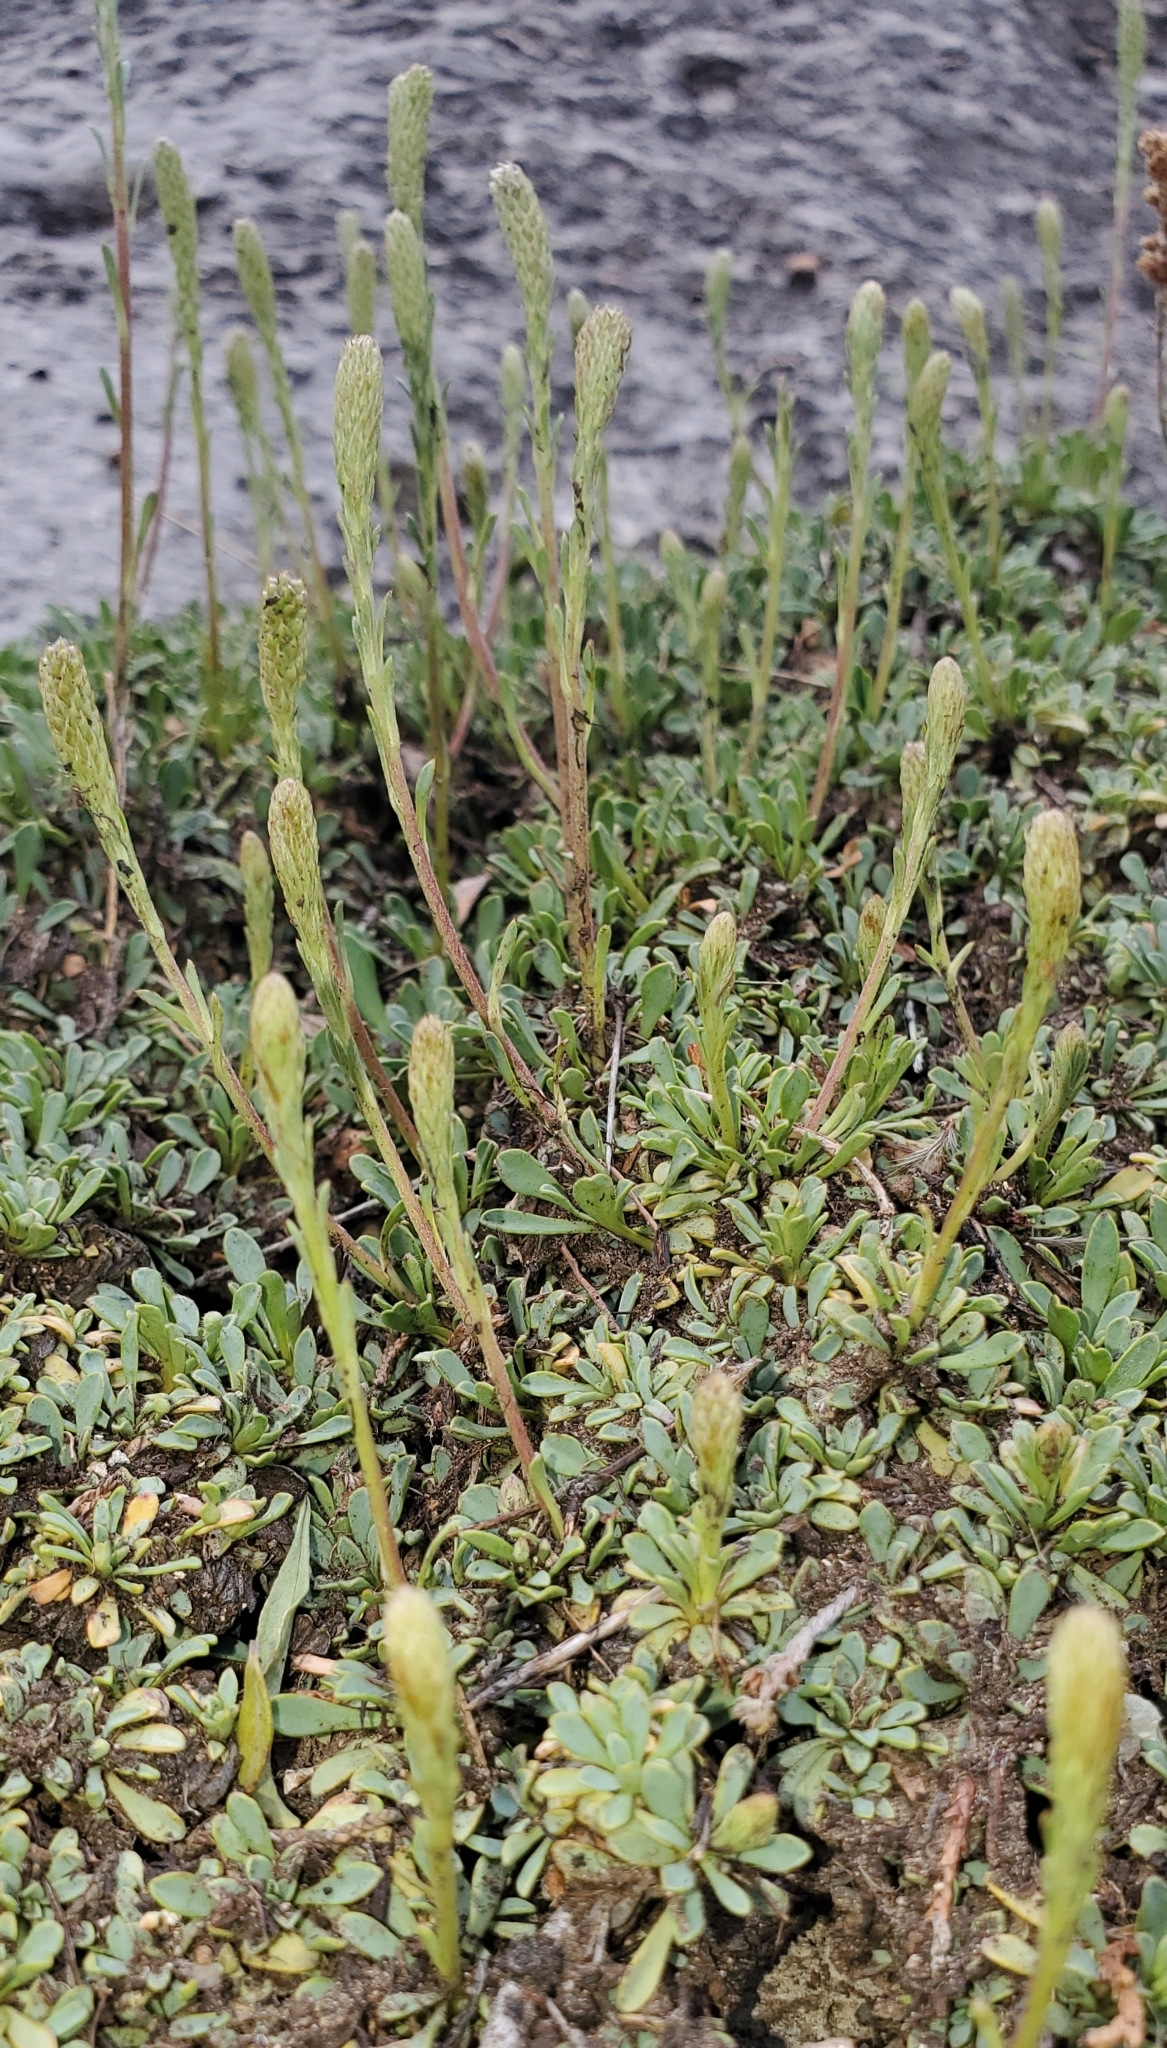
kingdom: Plantae
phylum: Tracheophyta
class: Magnoliopsida
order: Rosales
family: Rosaceae
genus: Petrophytum
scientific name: Petrophytum caespitosum
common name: Mat rockspirea
